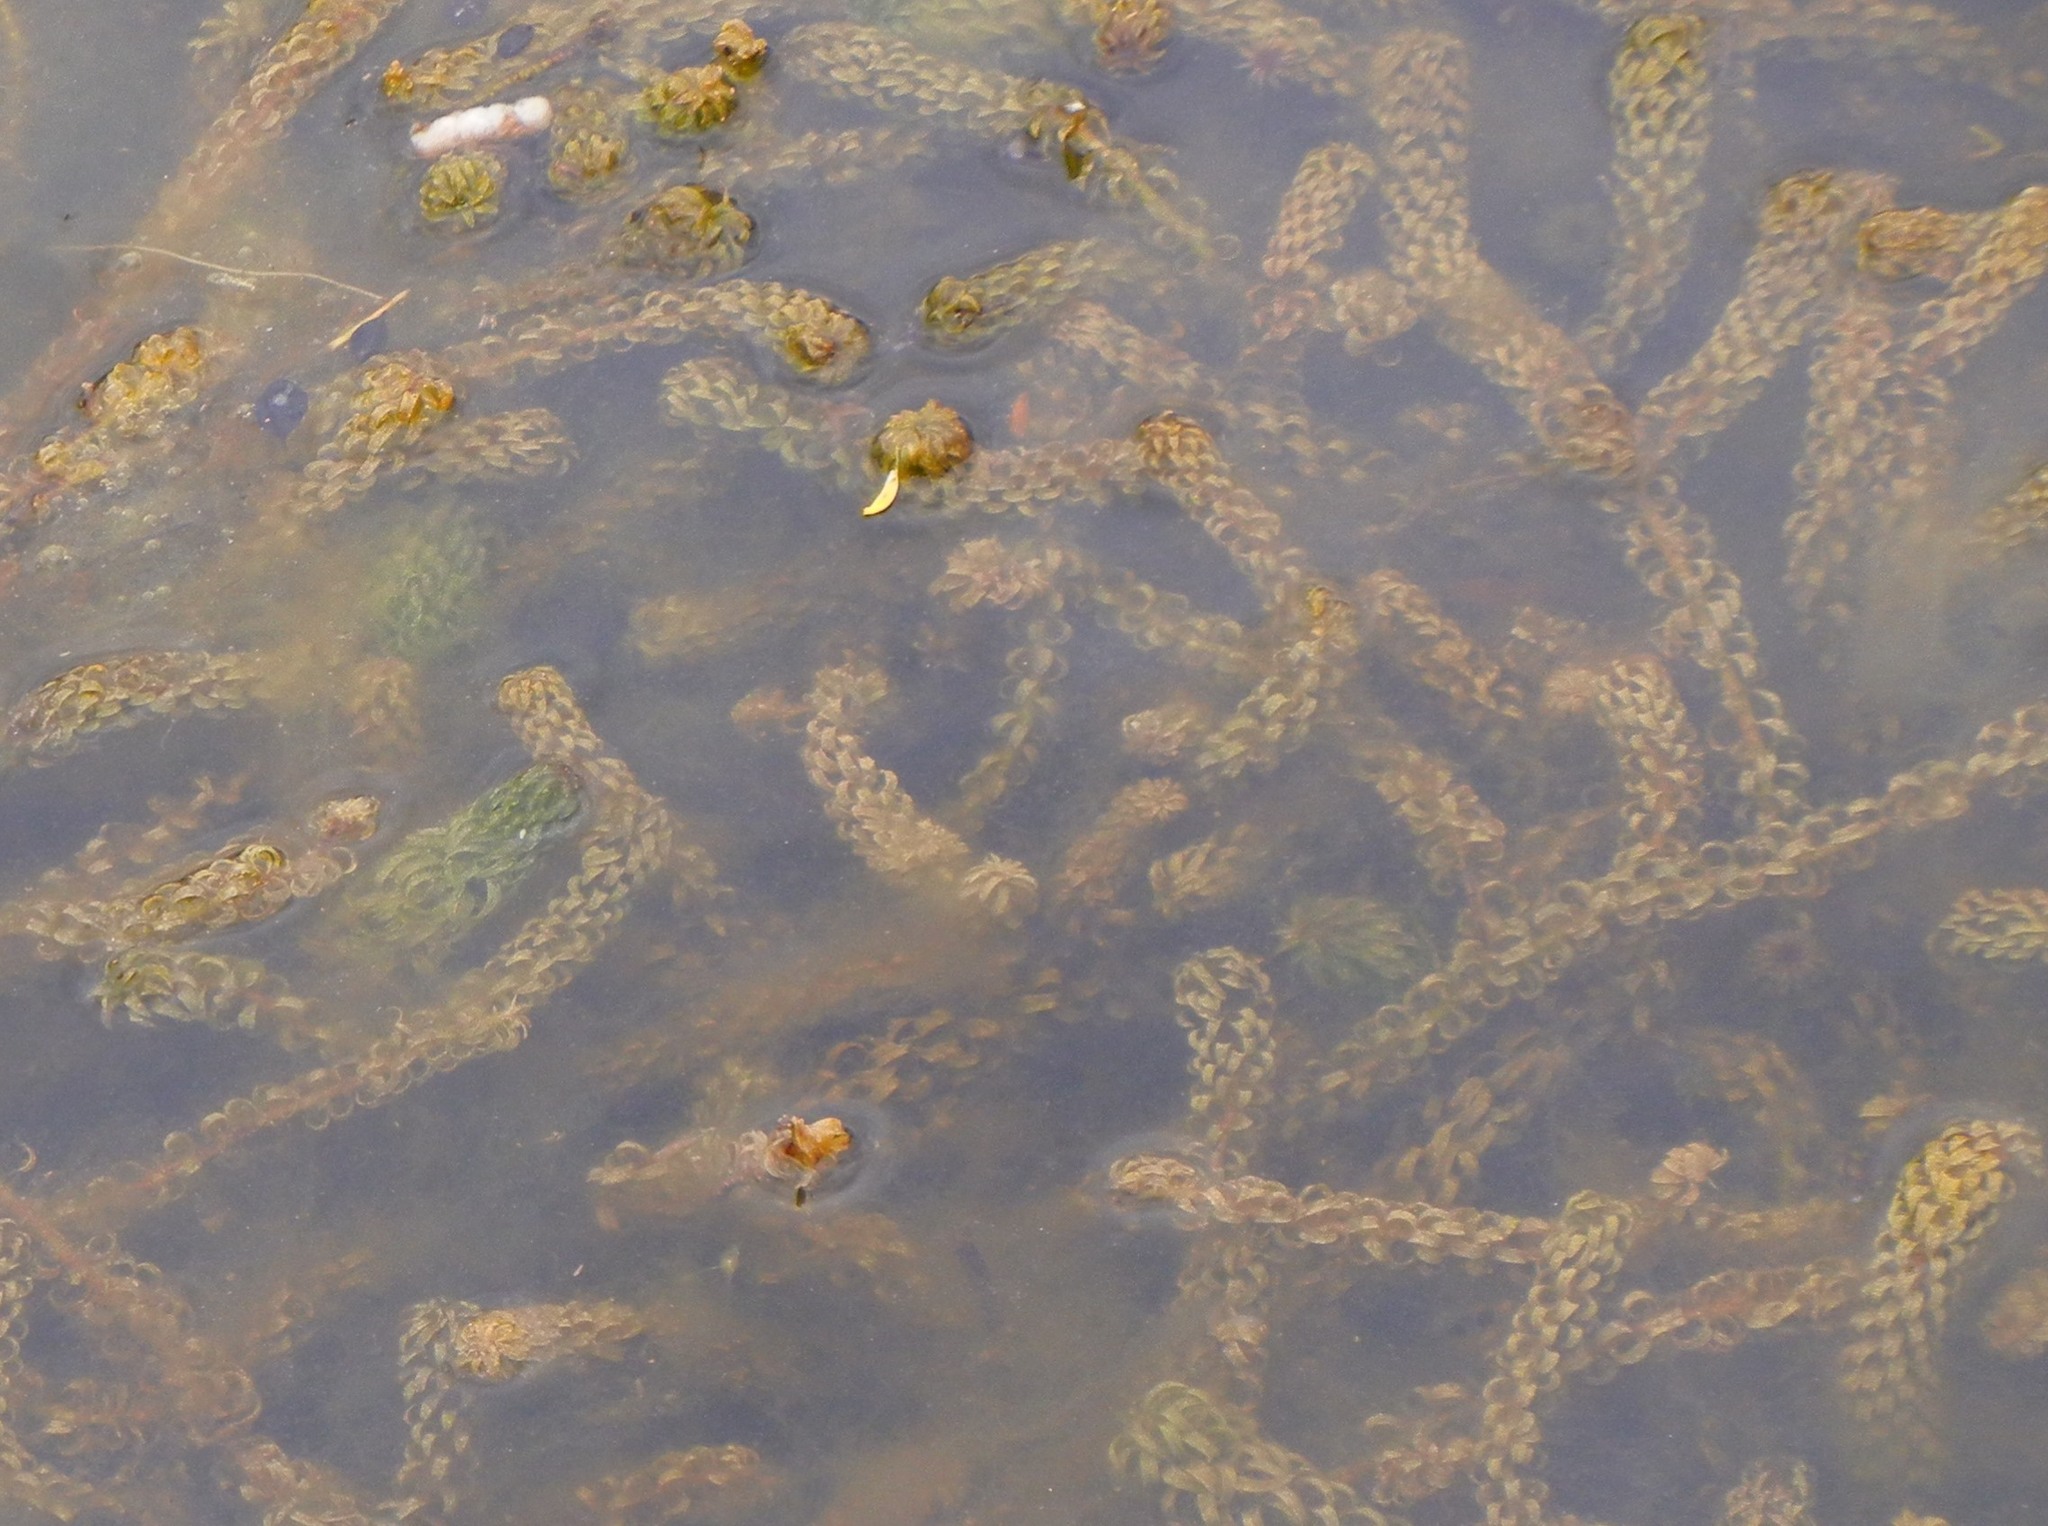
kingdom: Plantae
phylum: Tracheophyta
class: Liliopsida
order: Alismatales
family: Hydrocharitaceae
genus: Lagarosiphon
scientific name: Lagarosiphon major
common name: Curly waterweed
